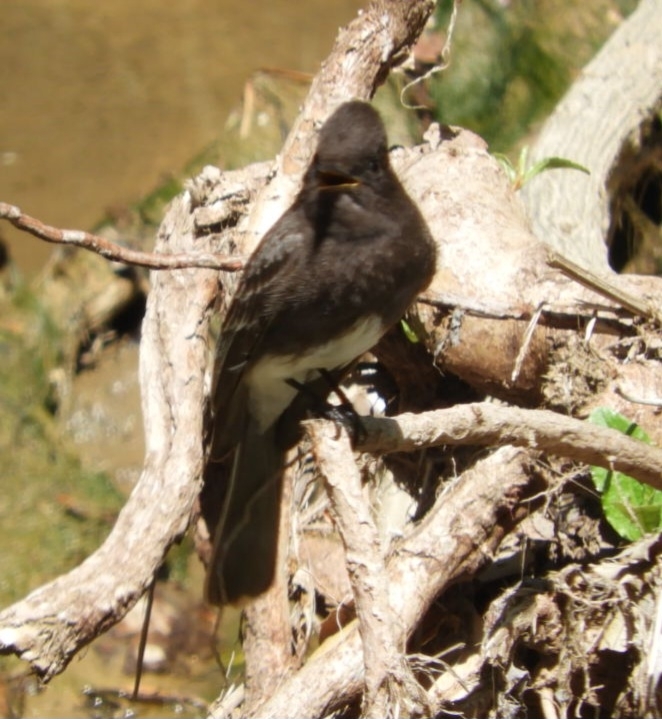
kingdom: Animalia
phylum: Chordata
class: Aves
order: Passeriformes
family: Tyrannidae
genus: Sayornis
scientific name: Sayornis nigricans
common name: Black phoebe
